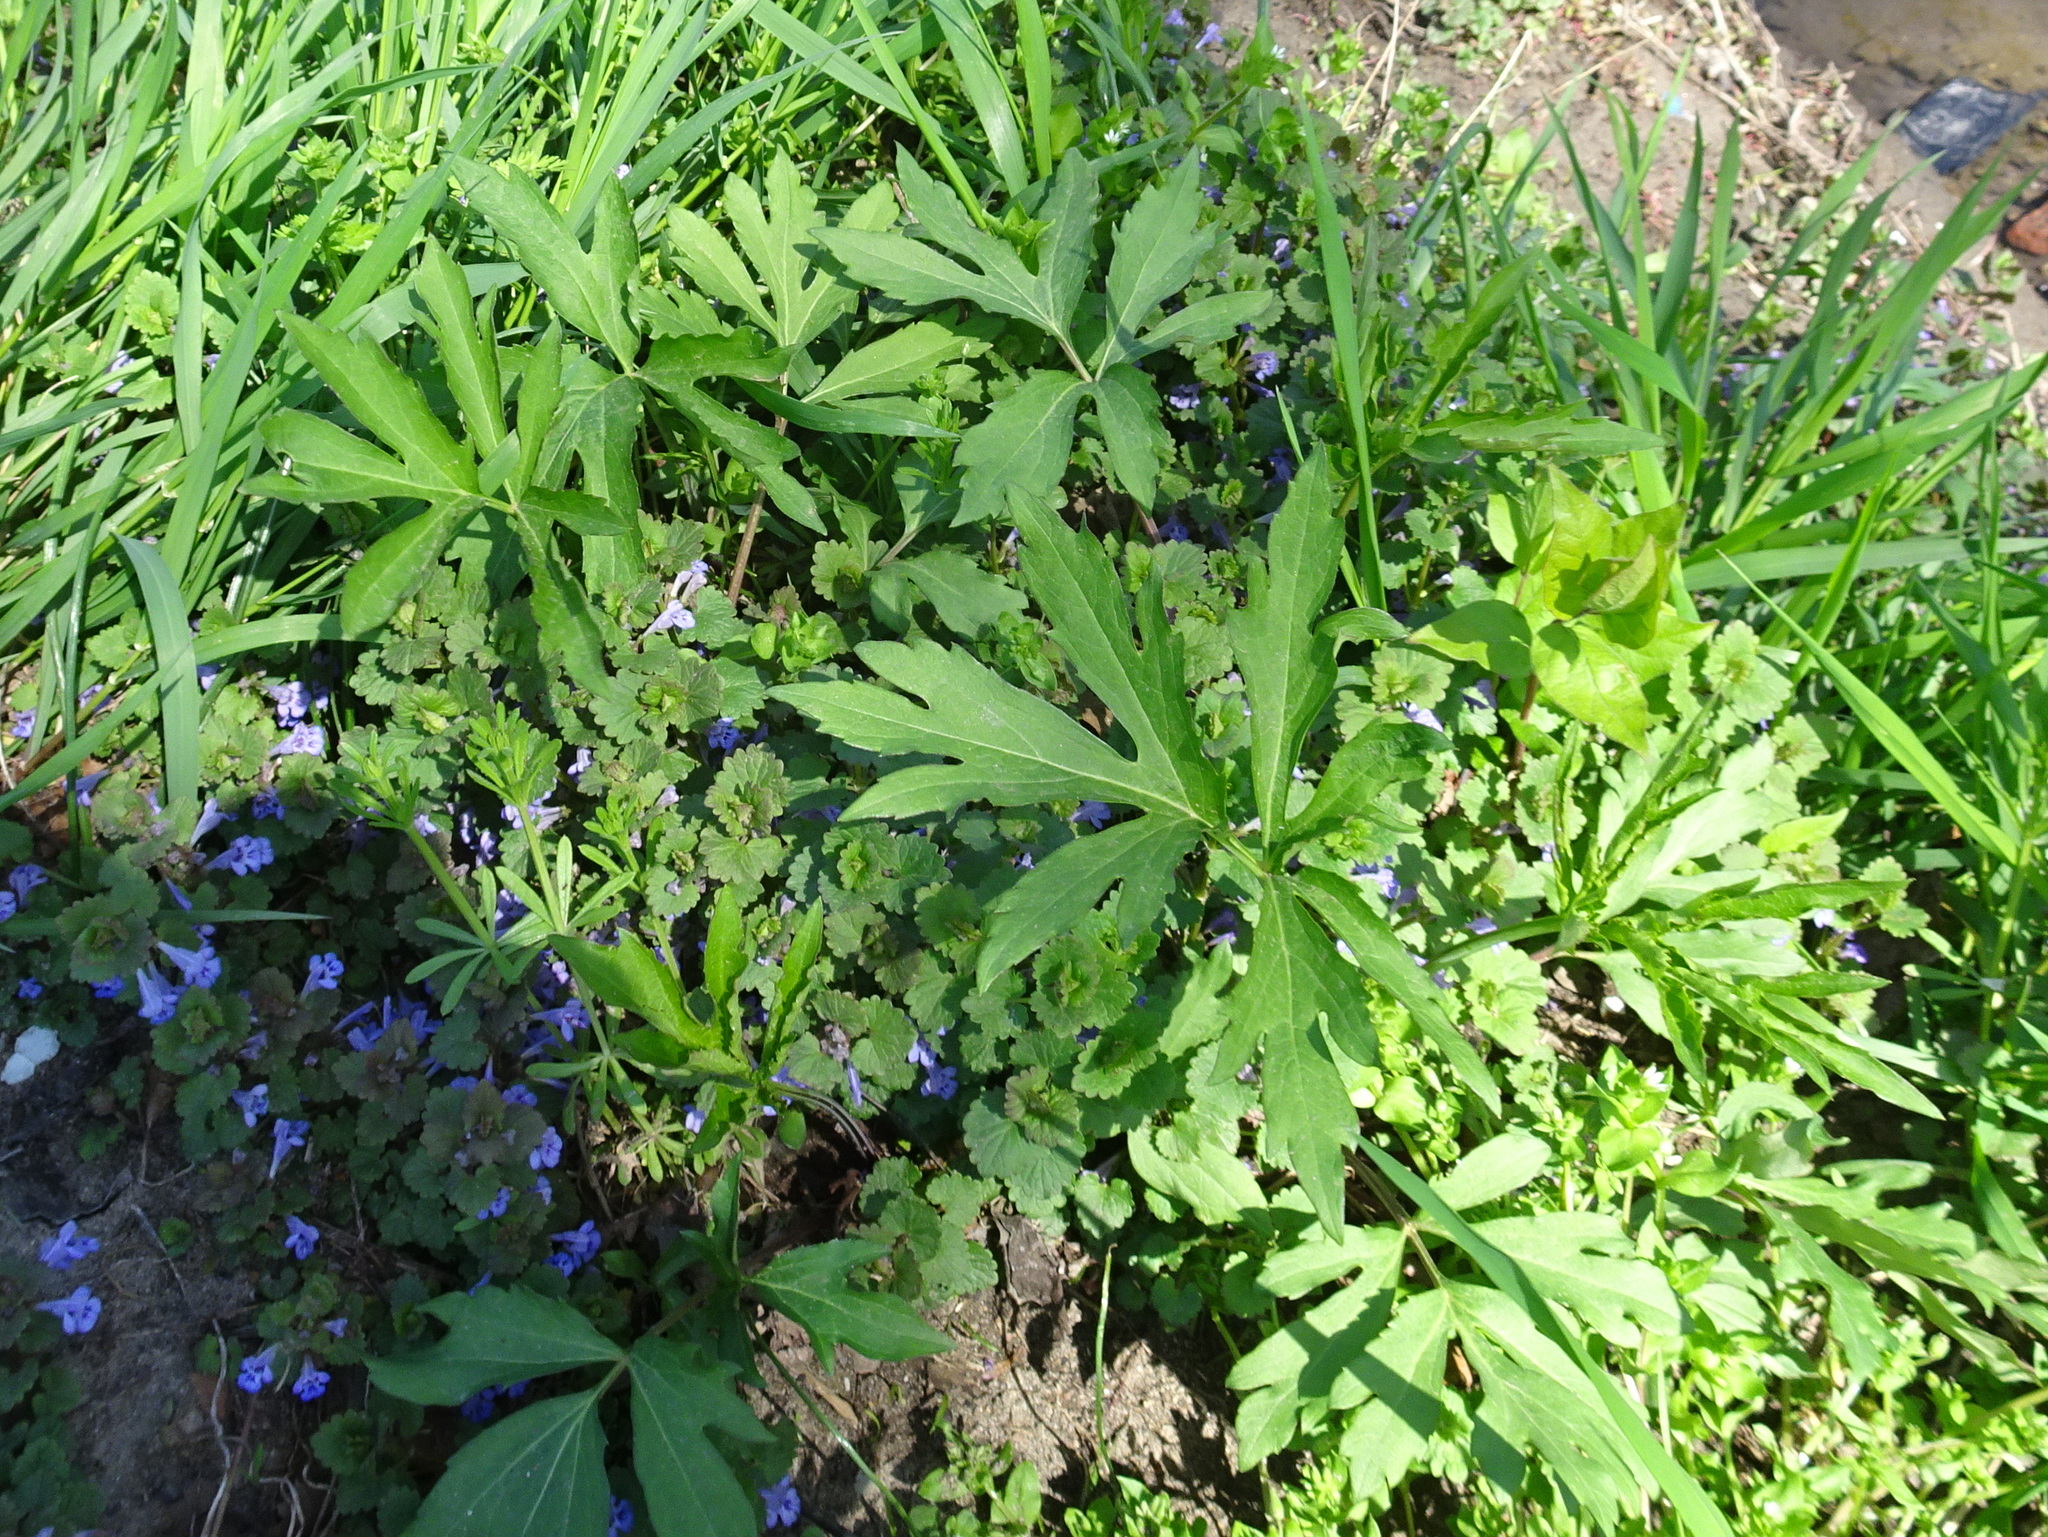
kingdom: Plantae
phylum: Tracheophyta
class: Magnoliopsida
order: Asterales
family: Asteraceae
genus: Rudbeckia
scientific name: Rudbeckia laciniata
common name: Coneflower
